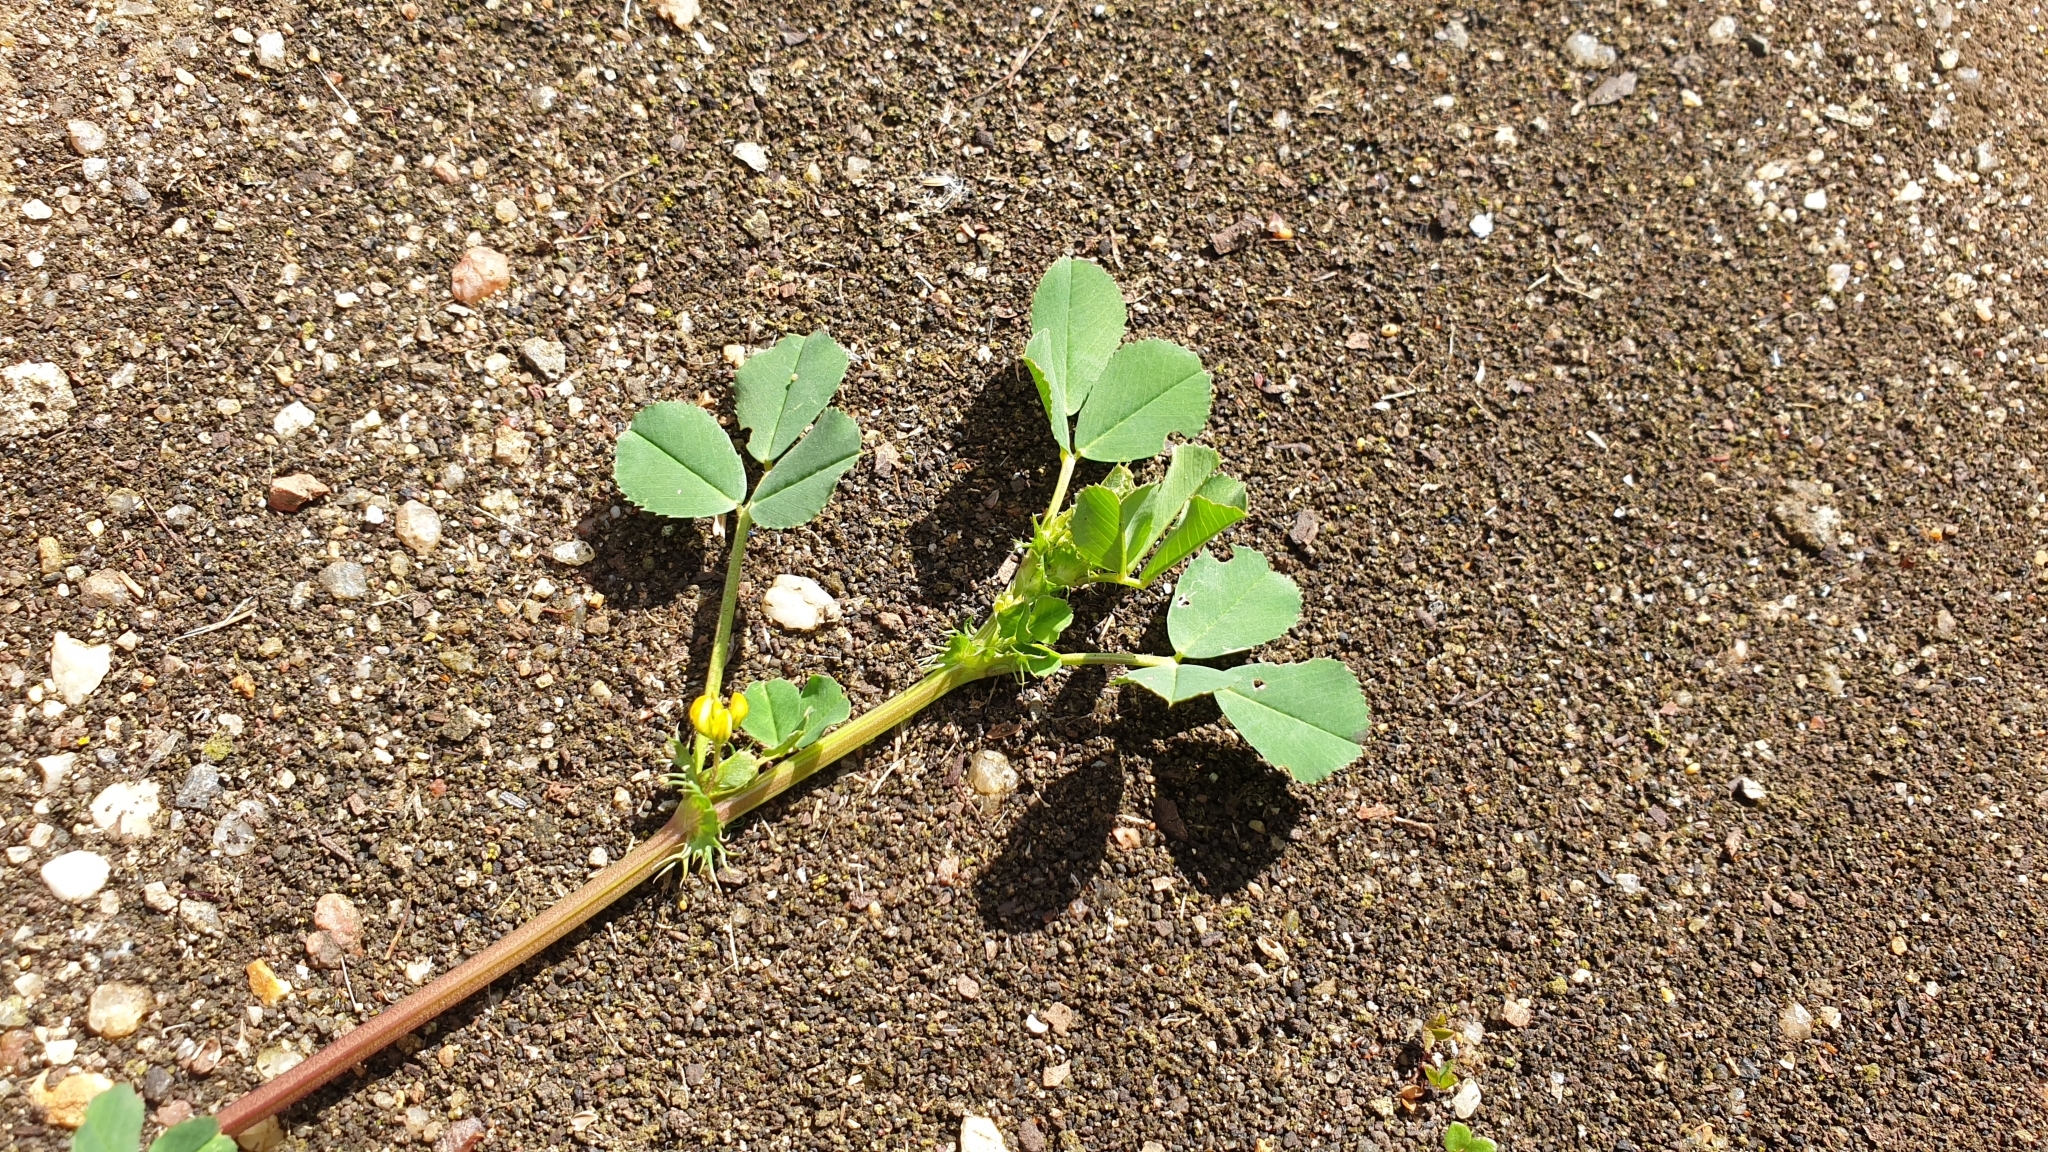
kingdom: Plantae
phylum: Tracheophyta
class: Magnoliopsida
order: Fabales
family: Fabaceae
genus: Medicago
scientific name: Medicago polymorpha
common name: Burclover
